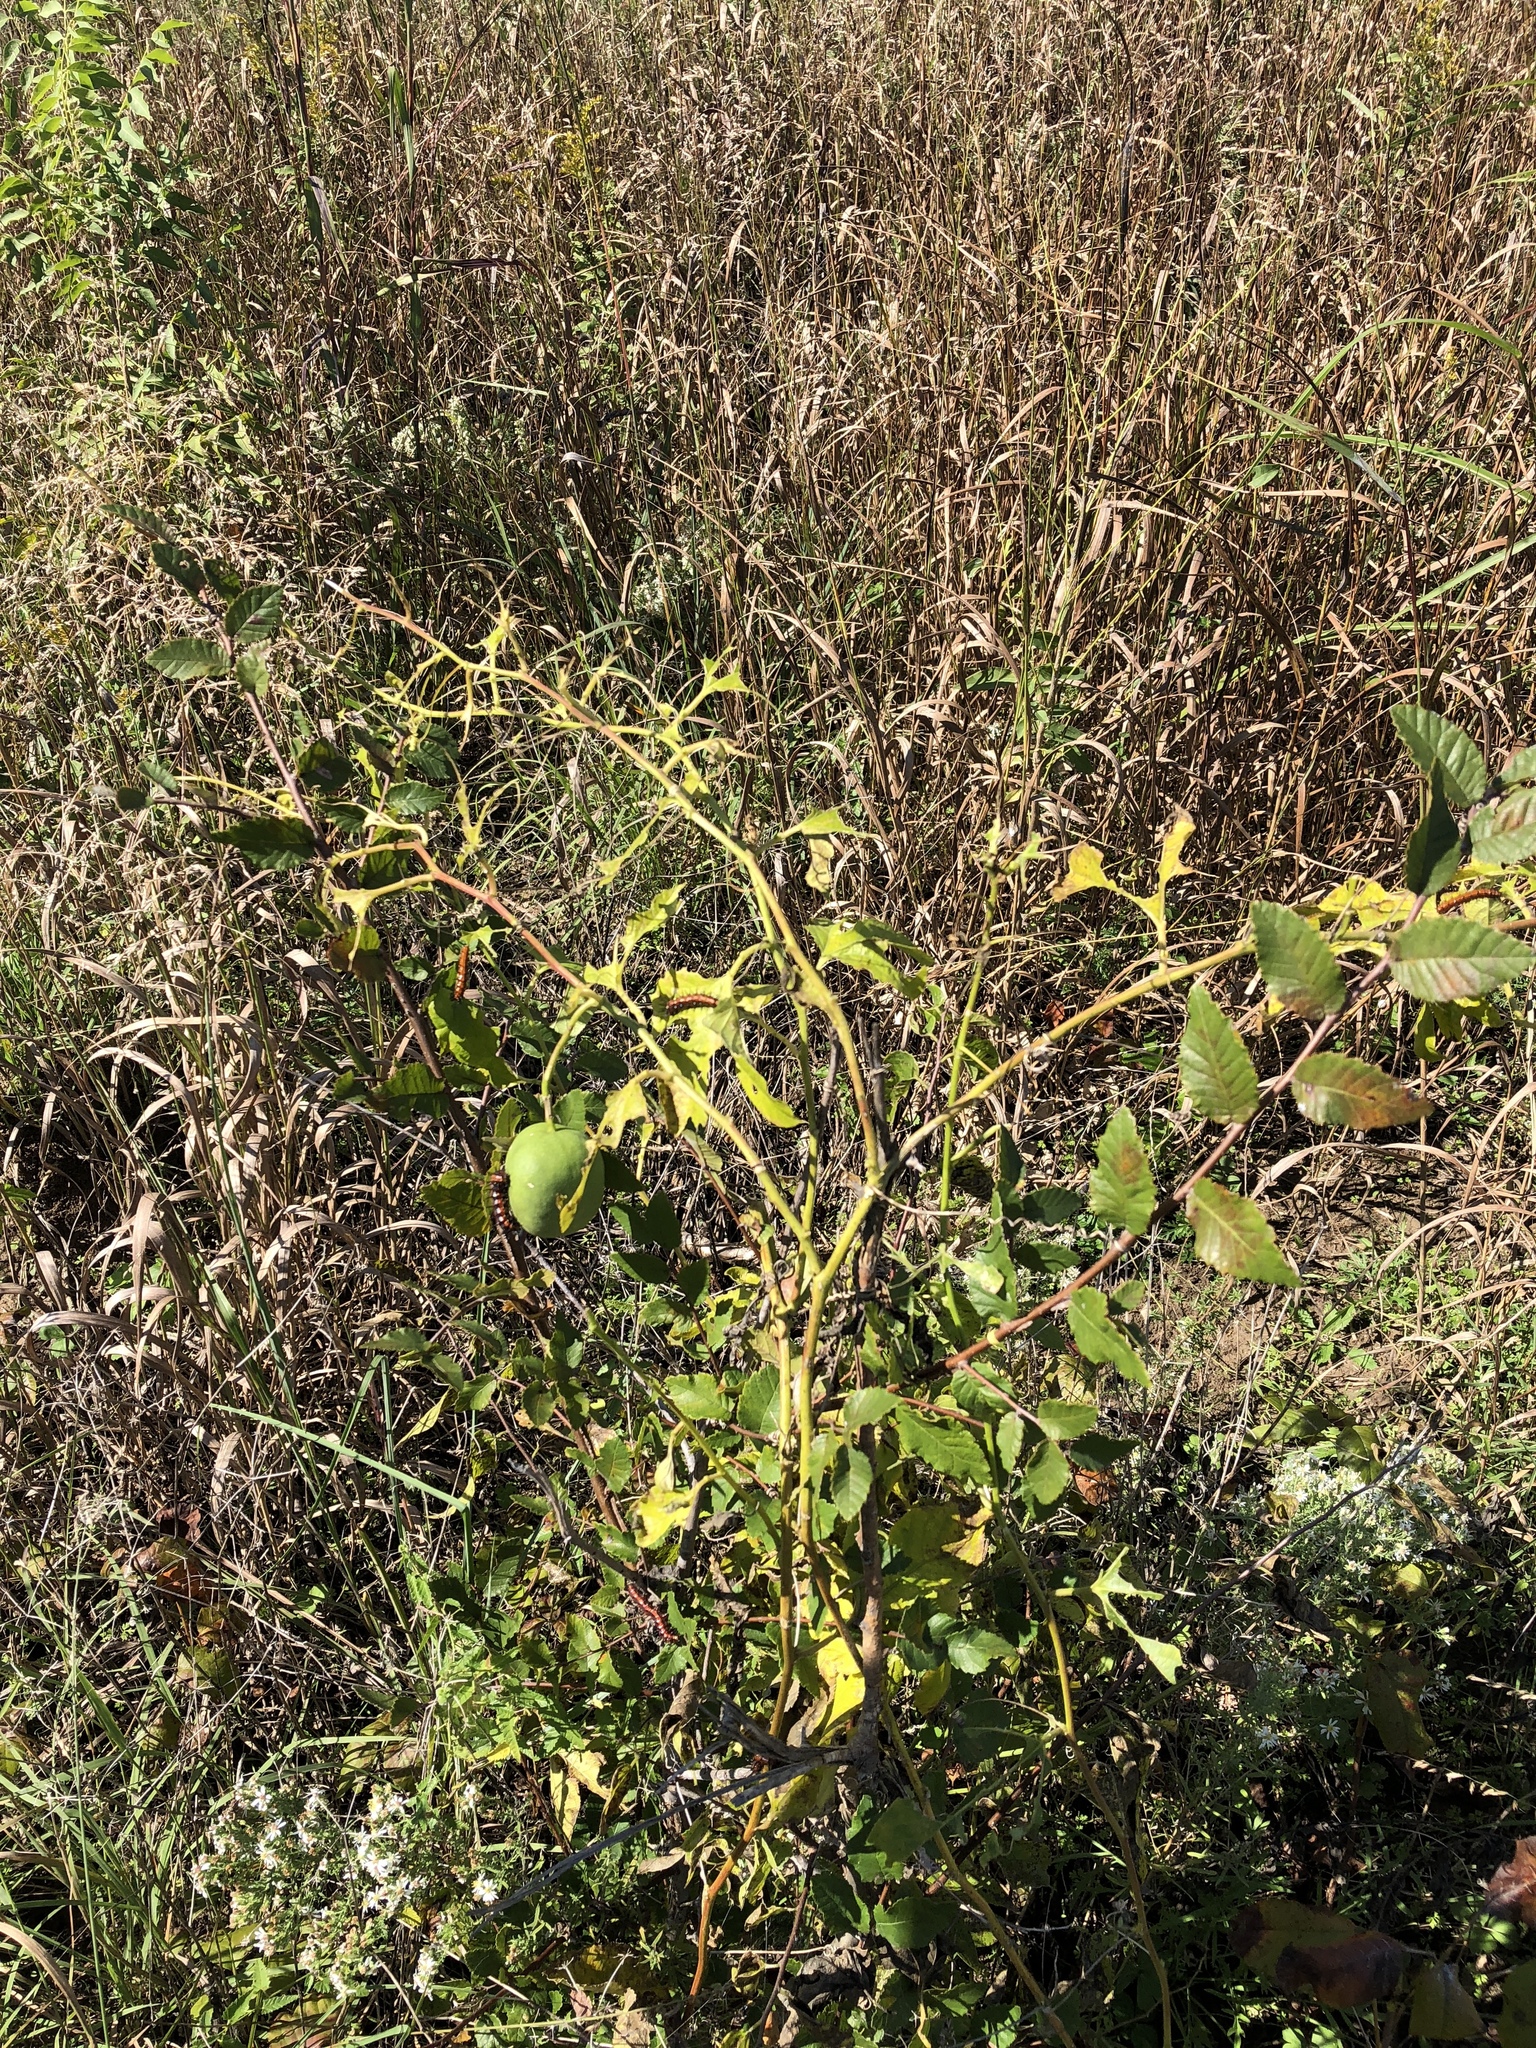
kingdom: Plantae
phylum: Tracheophyta
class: Magnoliopsida
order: Malpighiales
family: Passifloraceae
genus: Passiflora
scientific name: Passiflora incarnata
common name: Apricot-vine
